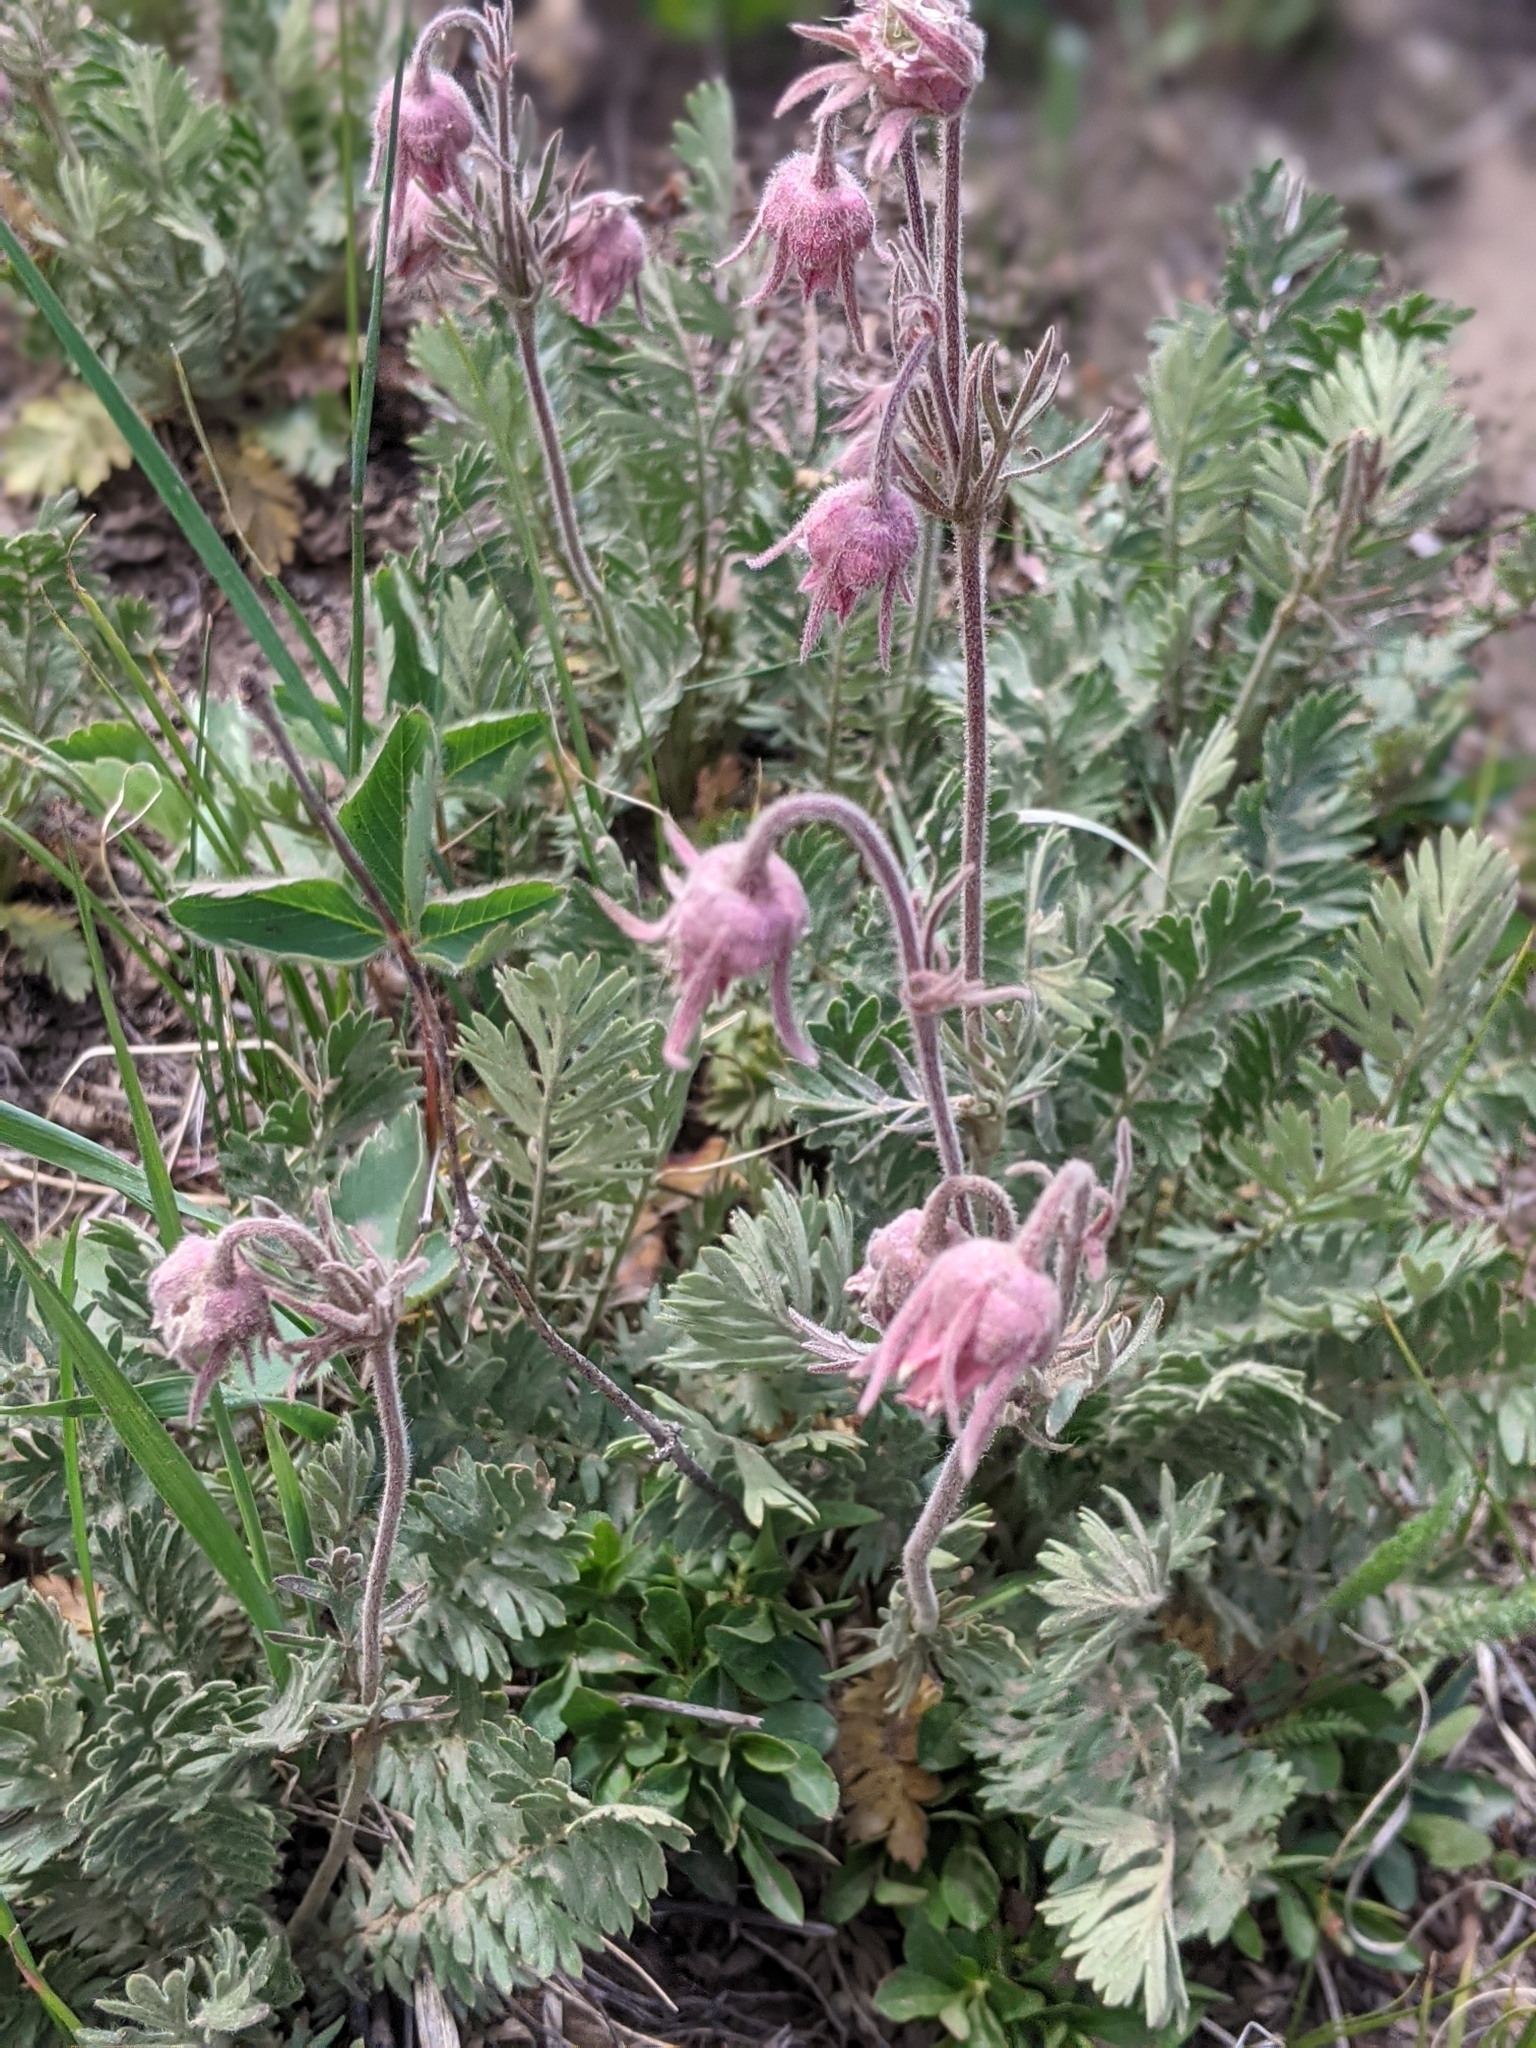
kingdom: Plantae
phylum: Tracheophyta
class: Magnoliopsida
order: Rosales
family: Rosaceae
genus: Geum
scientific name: Geum triflorum
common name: Old man's whiskers
